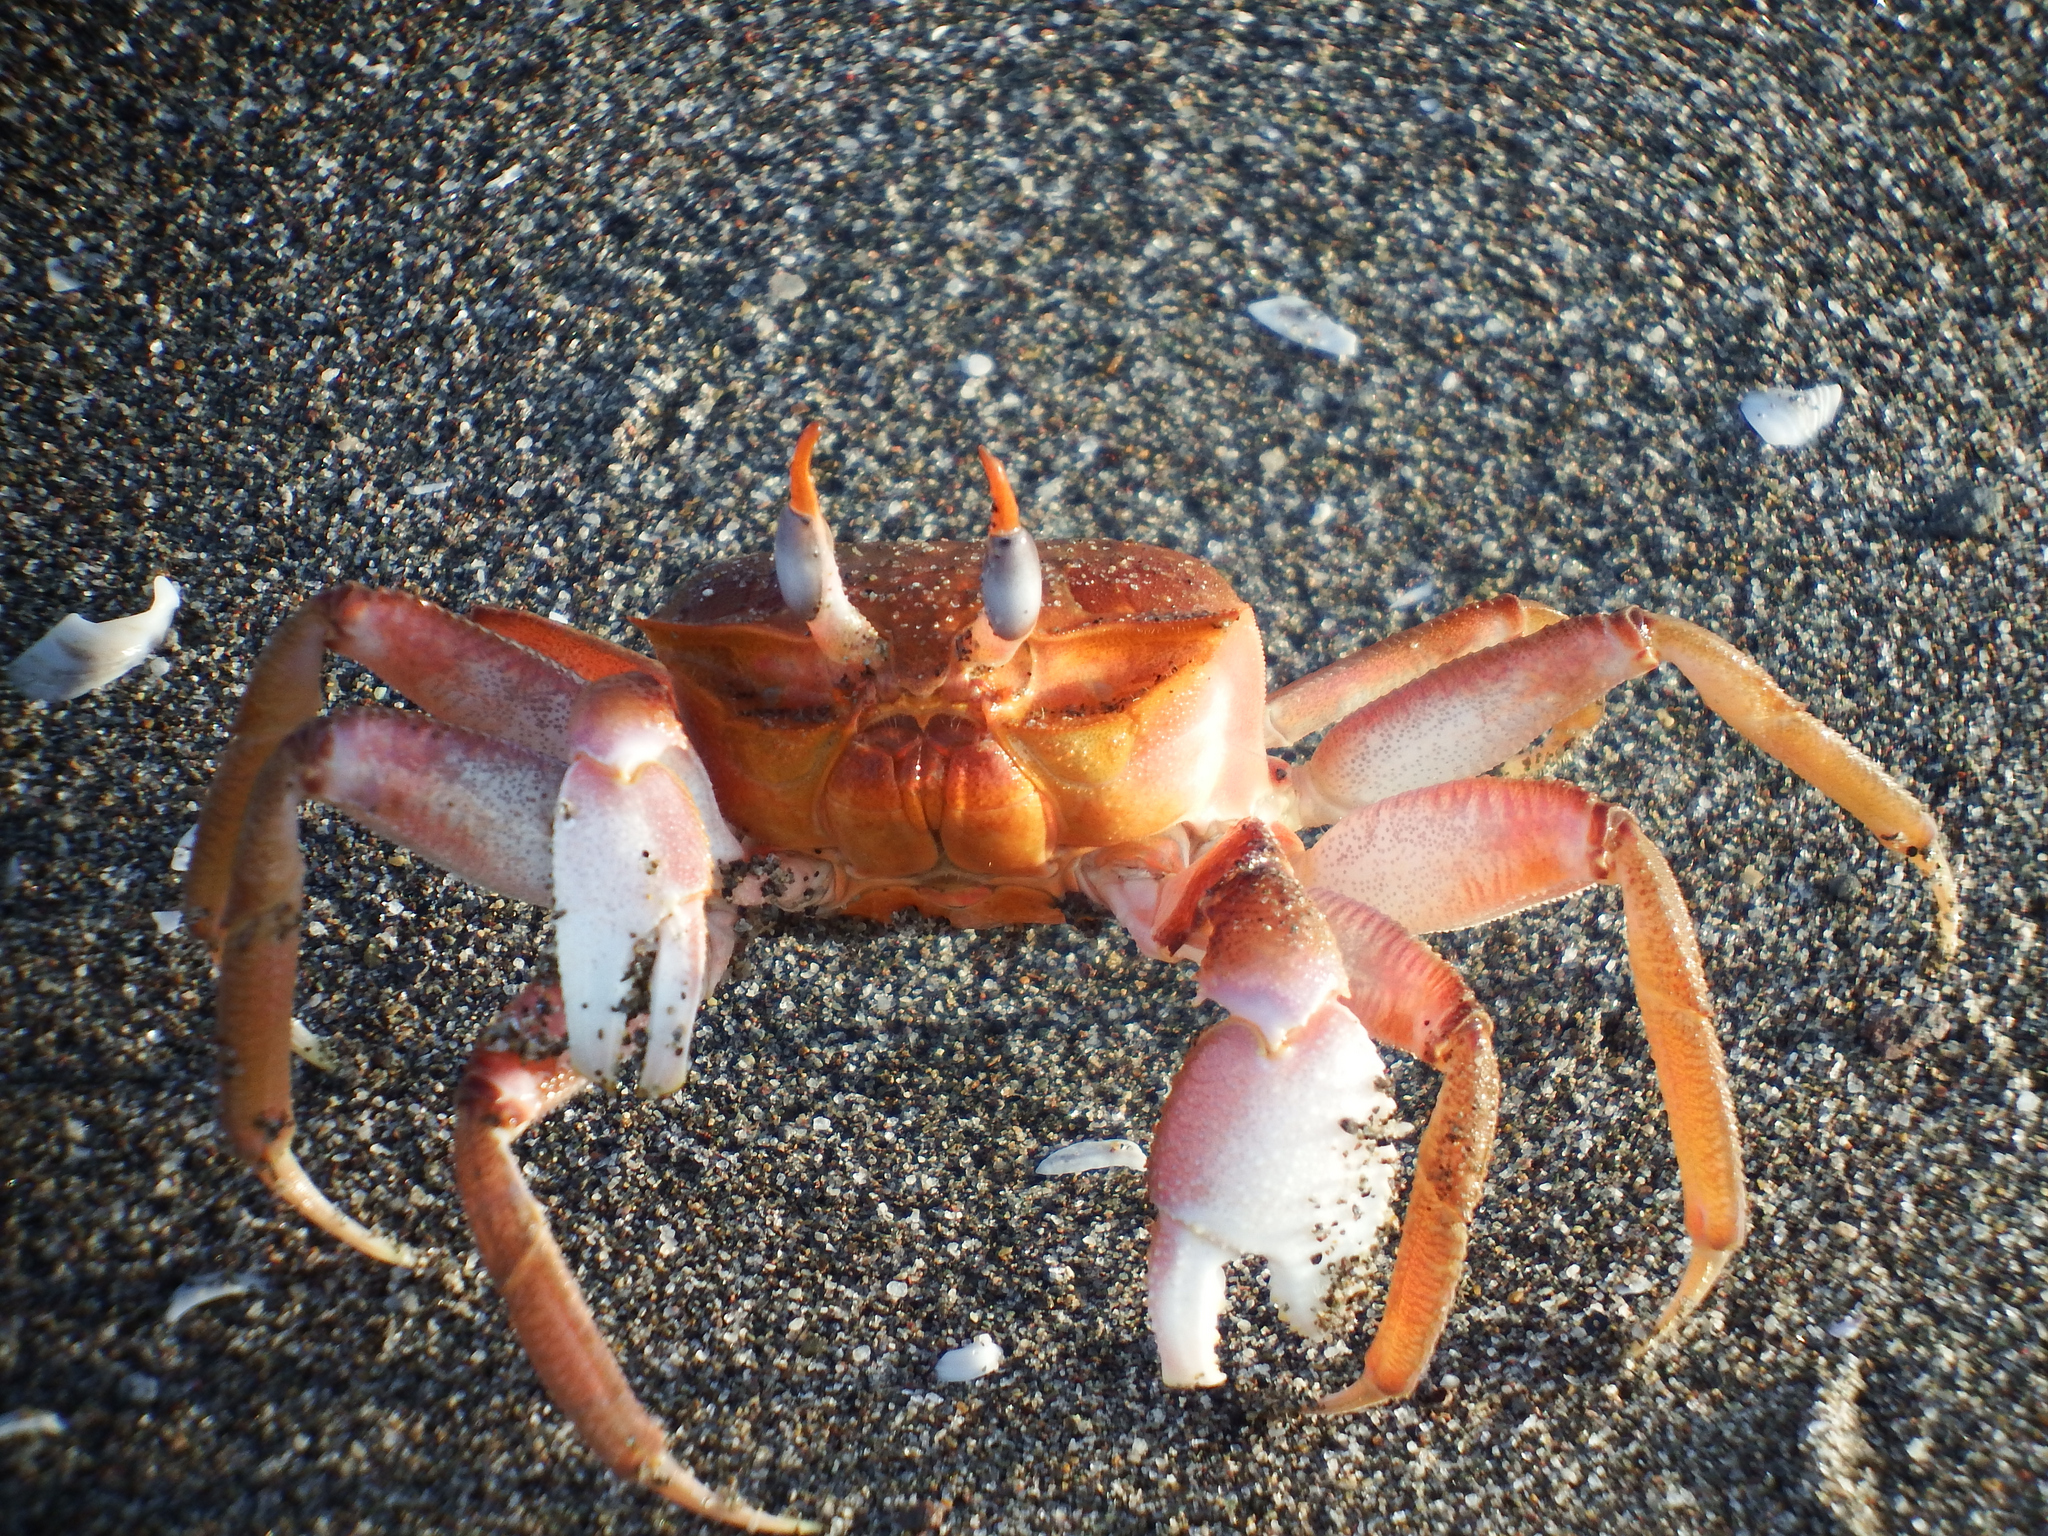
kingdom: Animalia
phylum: Arthropoda
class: Malacostraca
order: Decapoda
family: Ocypodidae
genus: Ocypode
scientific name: Ocypode gaudichaudii
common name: Pacific ghost crab
